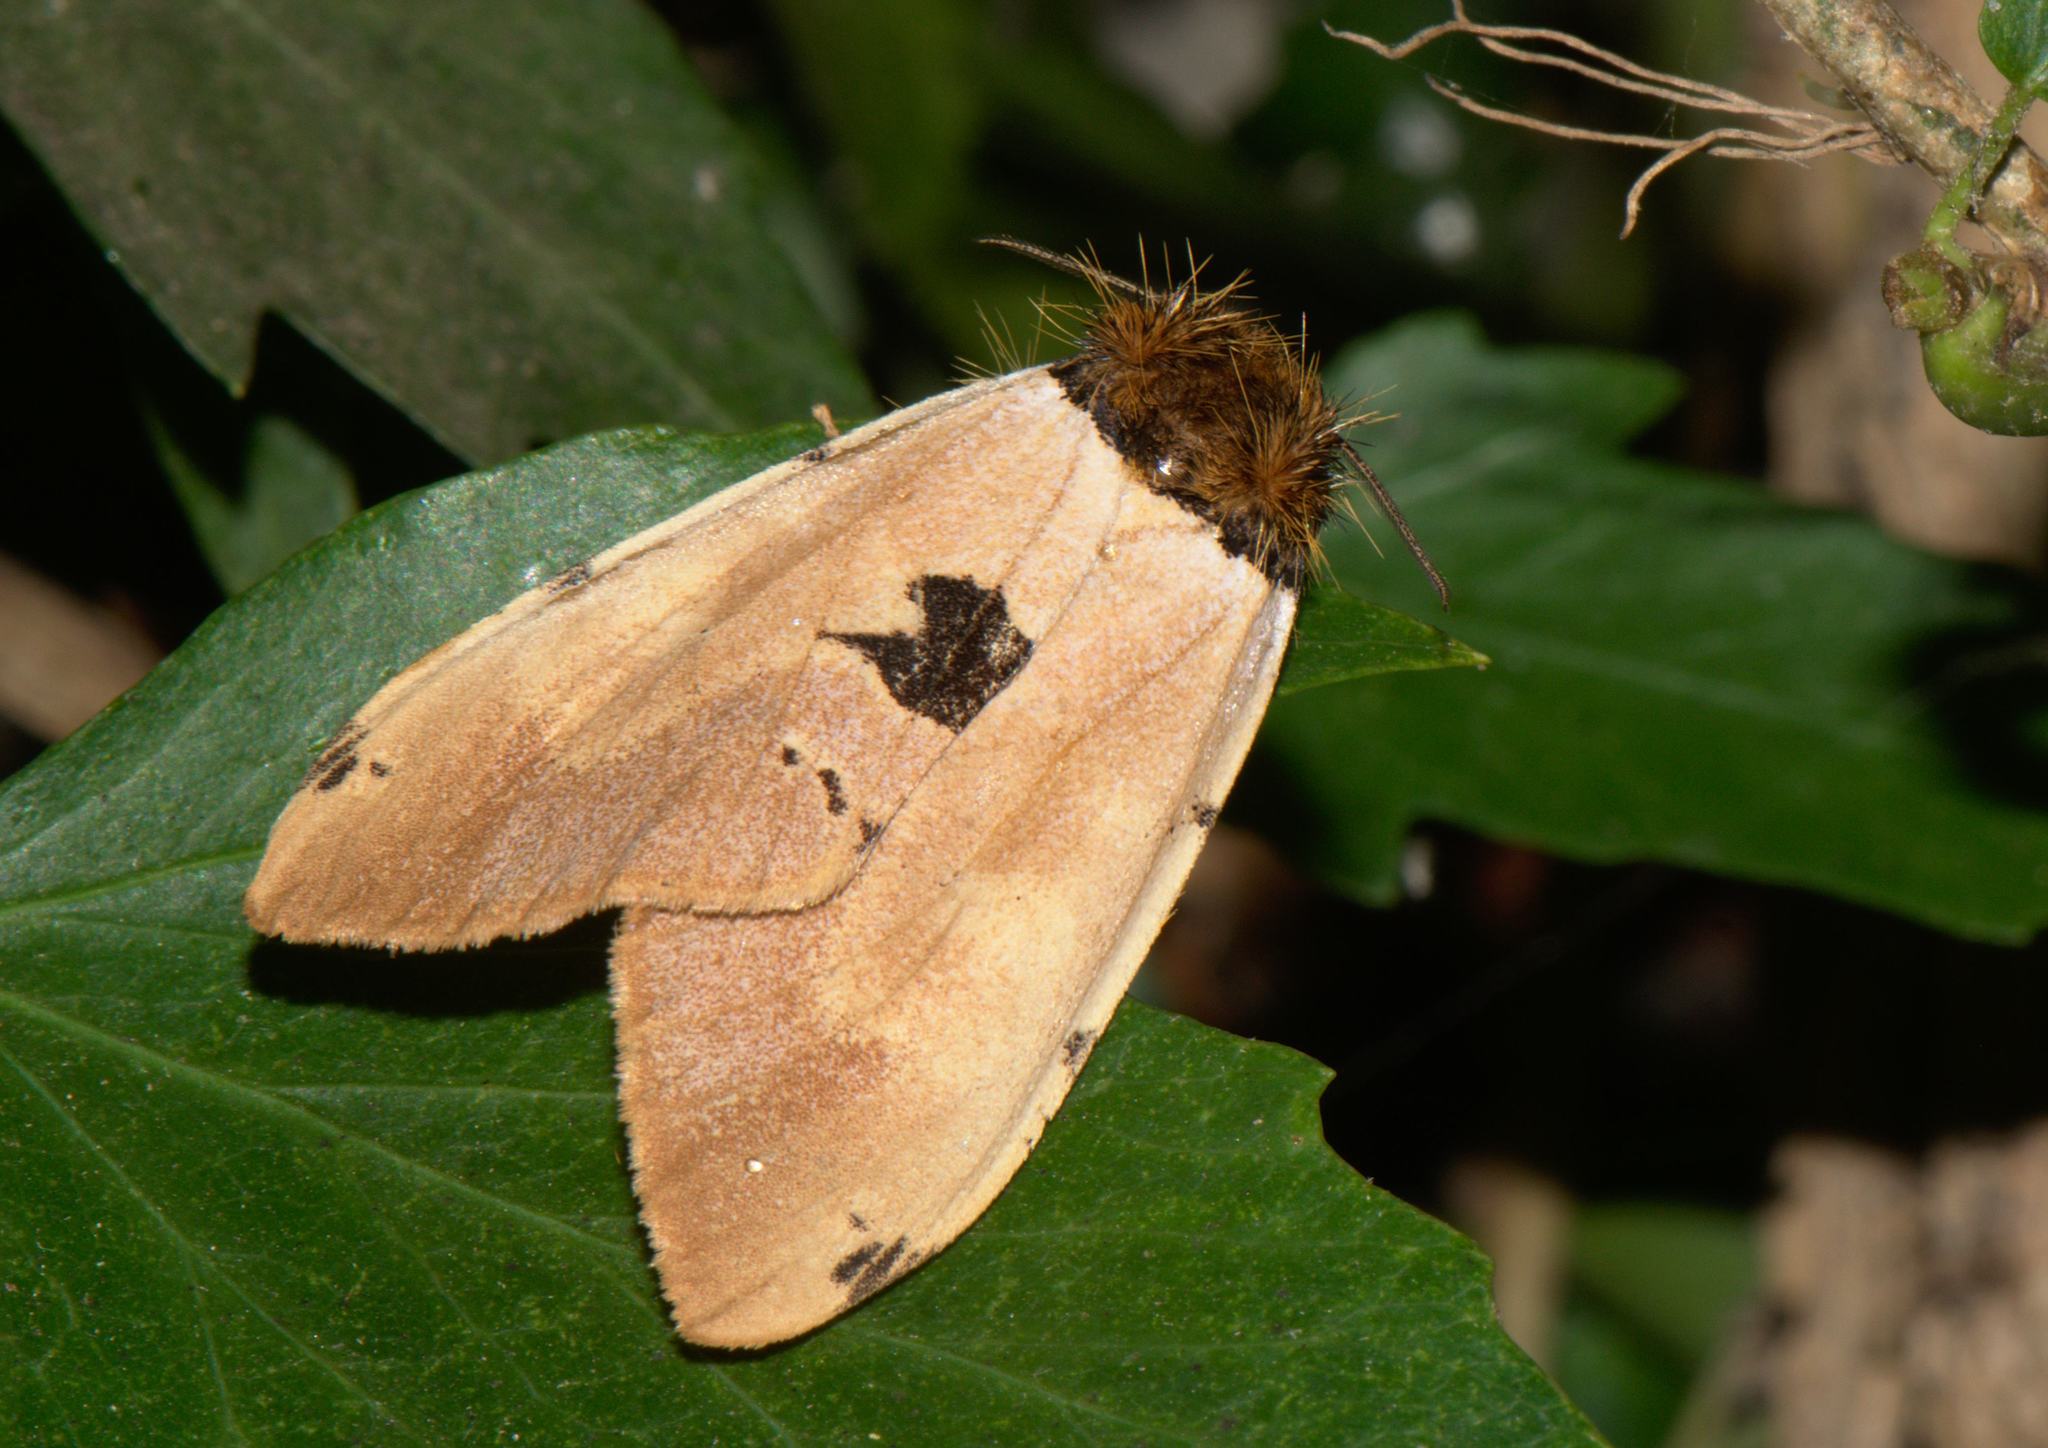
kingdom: Animalia
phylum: Arthropoda
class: Insecta
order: Lepidoptera
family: Erebidae
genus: Pida
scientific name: Pida
